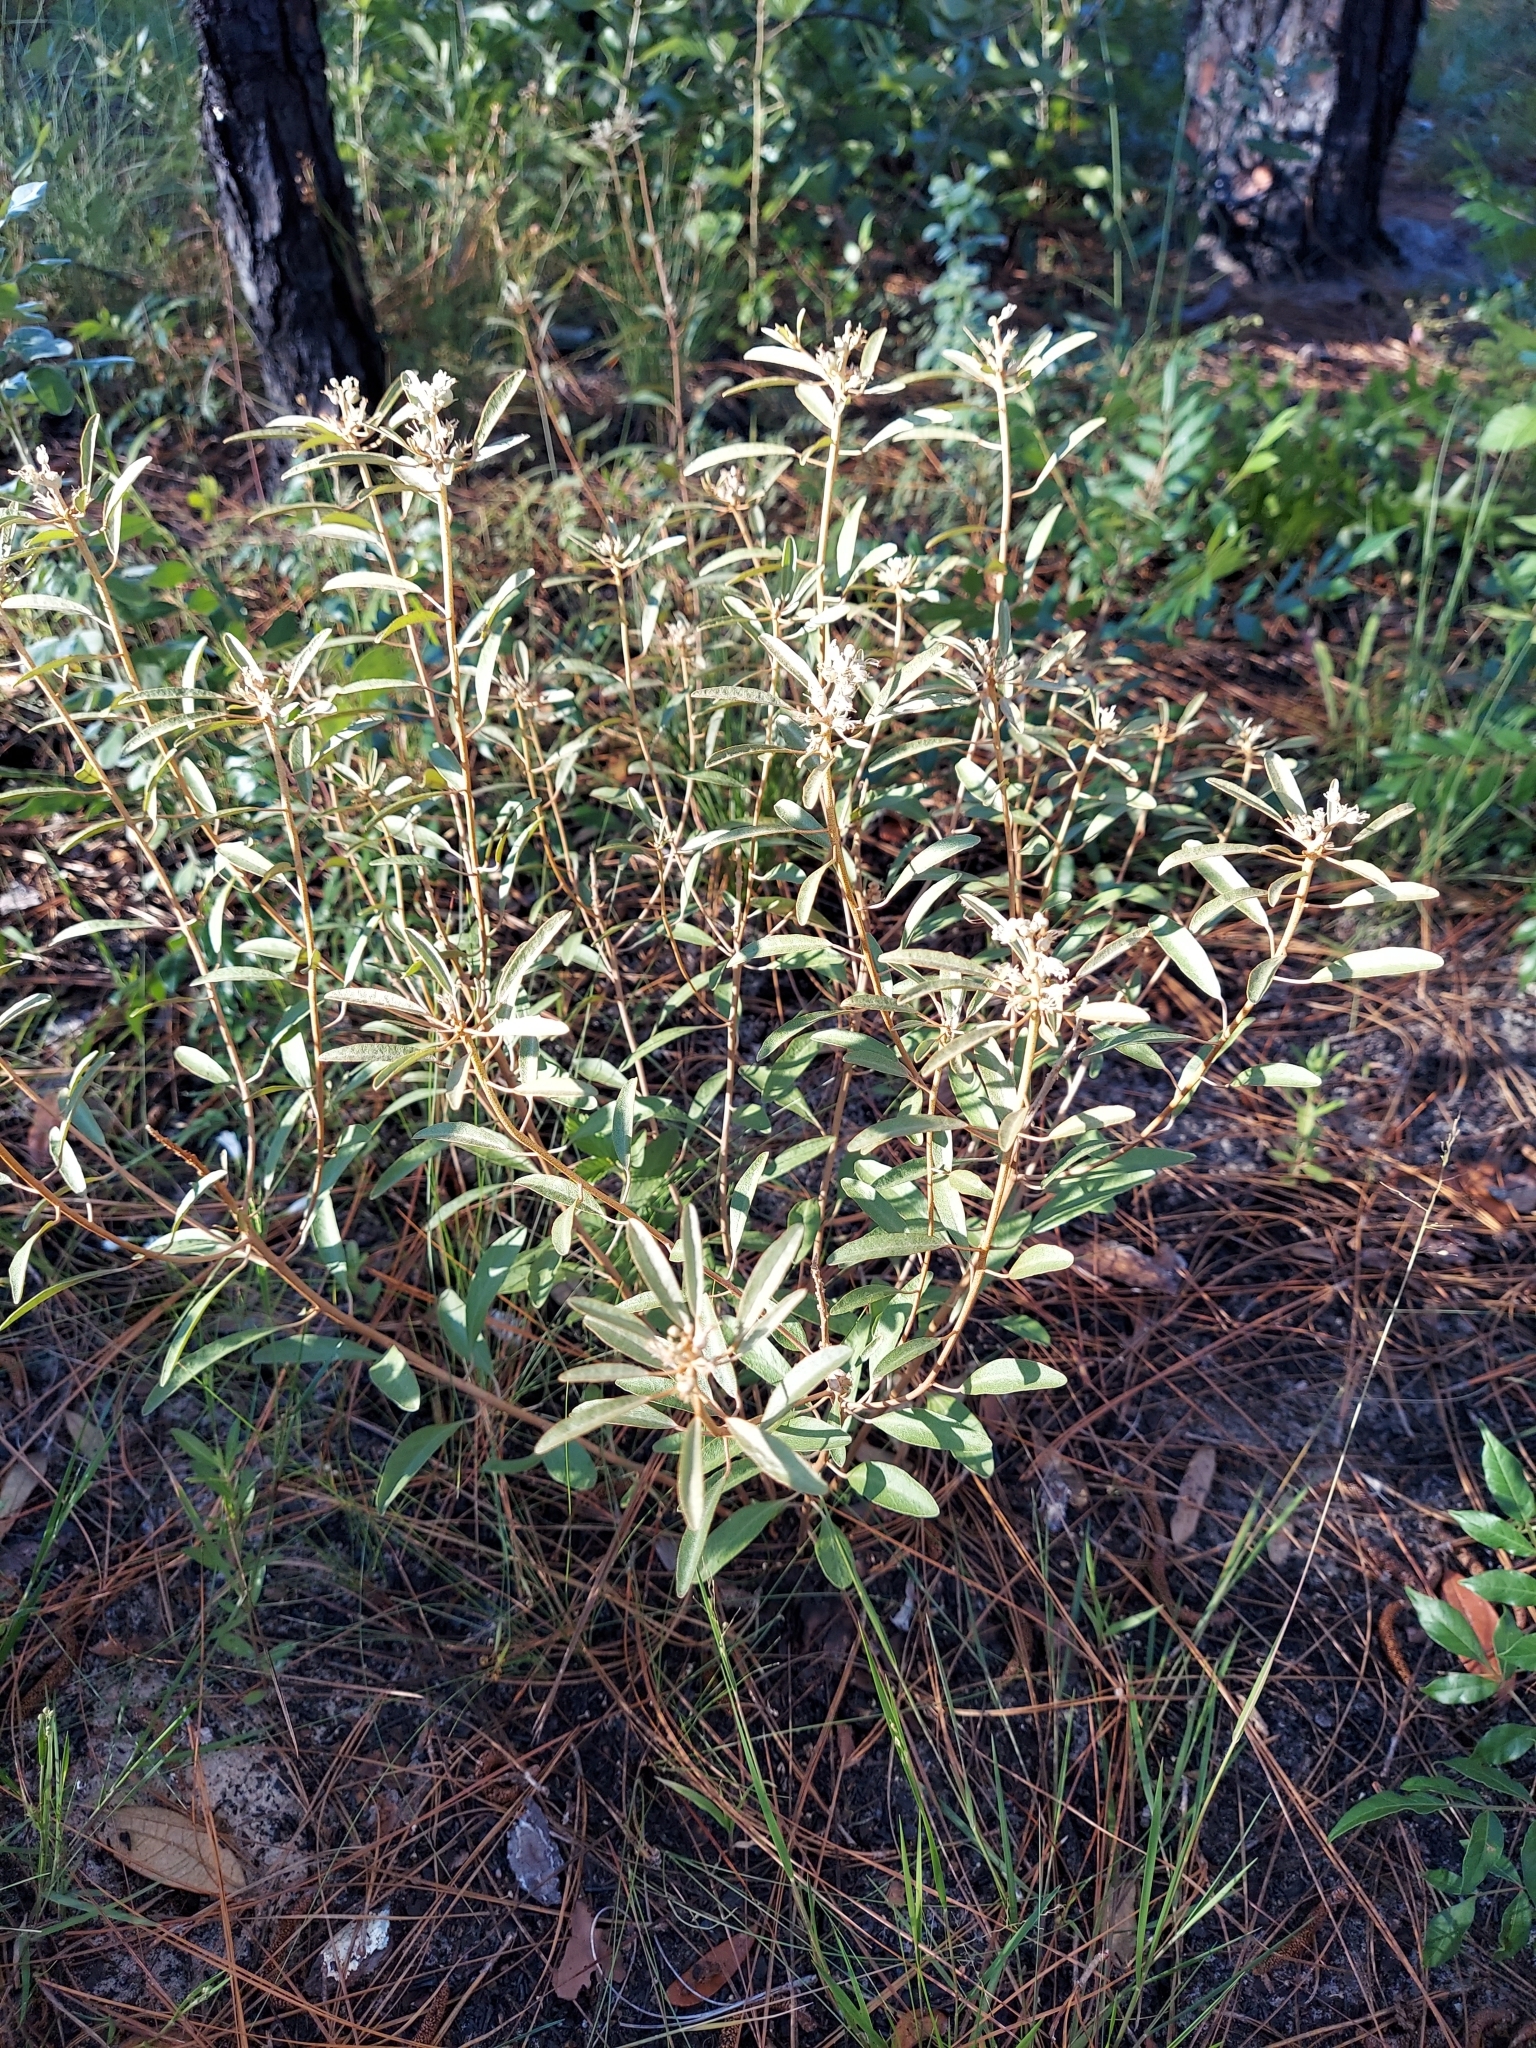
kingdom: Plantae
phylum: Tracheophyta
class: Magnoliopsida
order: Malpighiales
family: Euphorbiaceae
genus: Croton
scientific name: Croton argyranthemus
